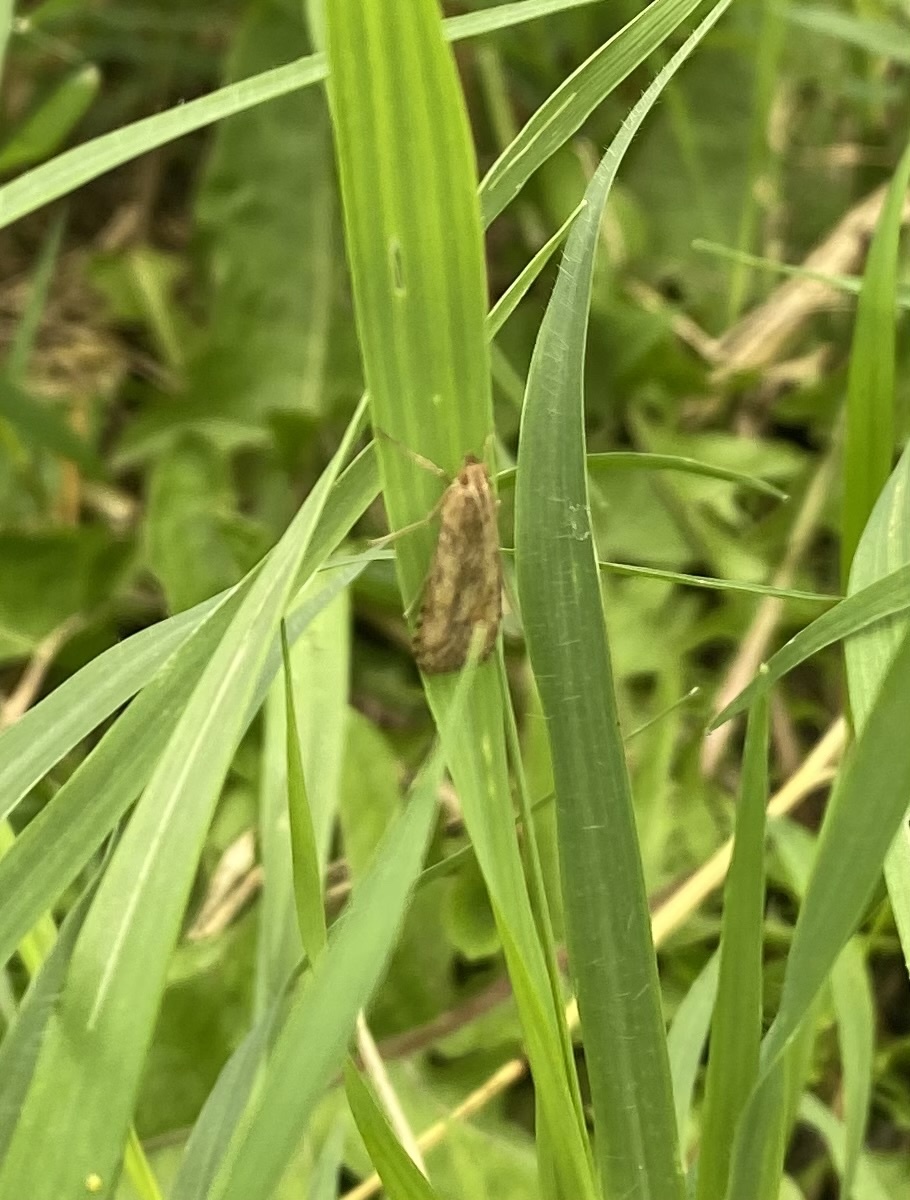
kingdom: Animalia
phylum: Arthropoda
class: Insecta
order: Lepidoptera
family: Crambidae
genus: Nomophila
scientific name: Nomophila noctuella
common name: Rush veneer
